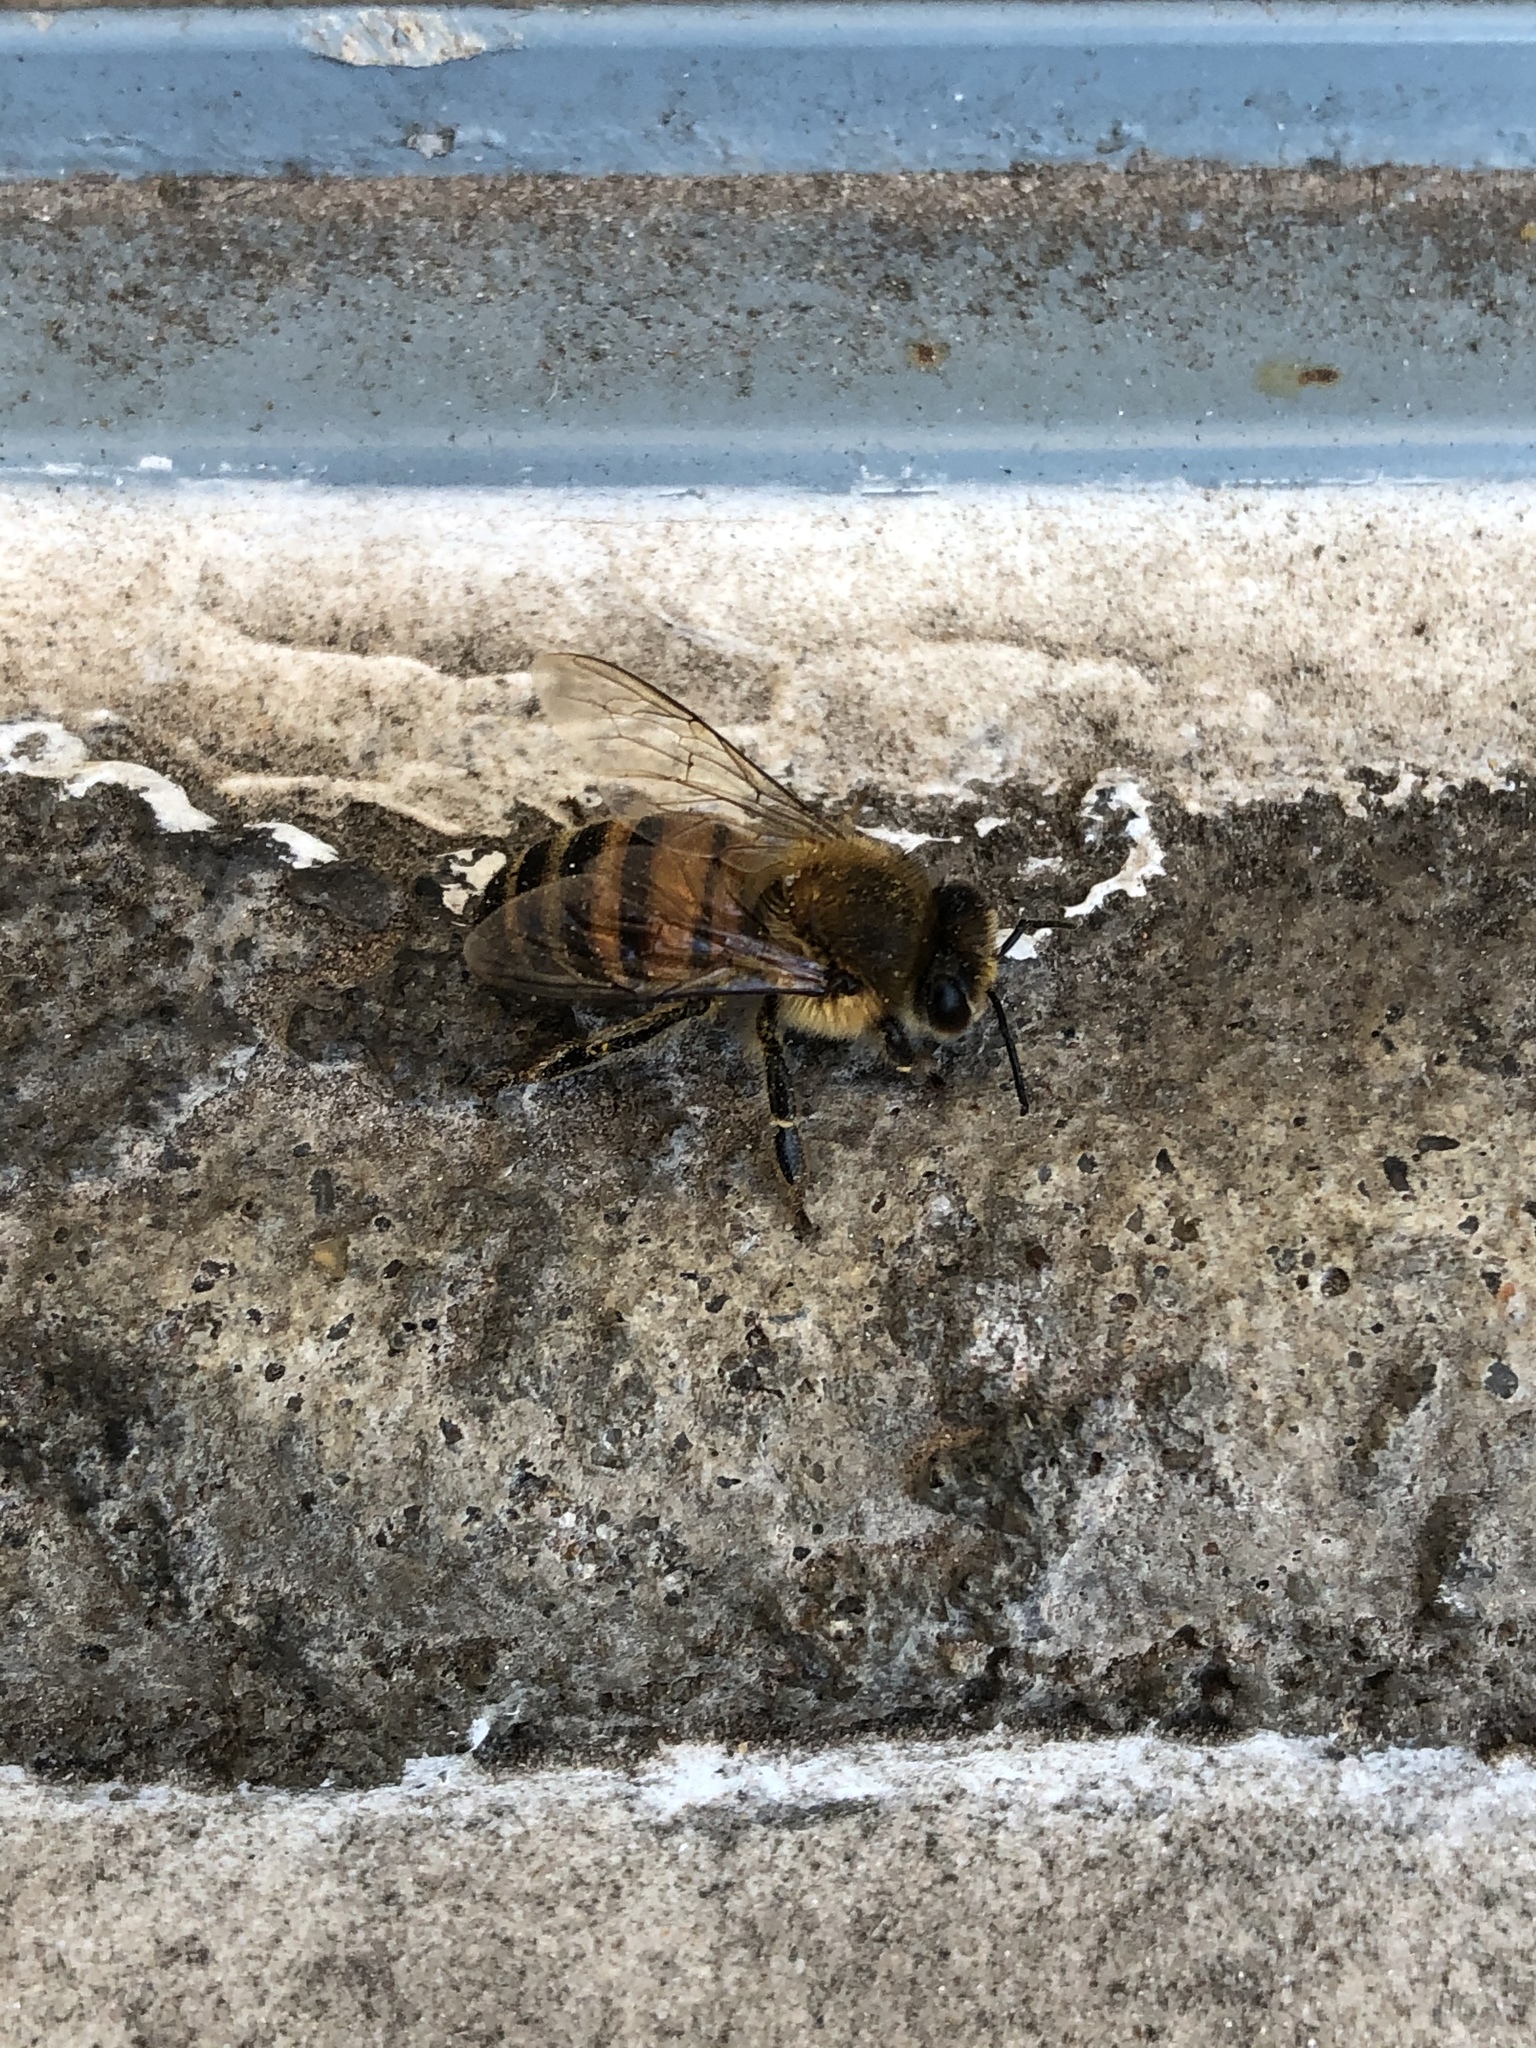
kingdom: Animalia
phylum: Arthropoda
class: Insecta
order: Hymenoptera
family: Apidae
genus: Apis
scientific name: Apis mellifera
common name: Honey bee
